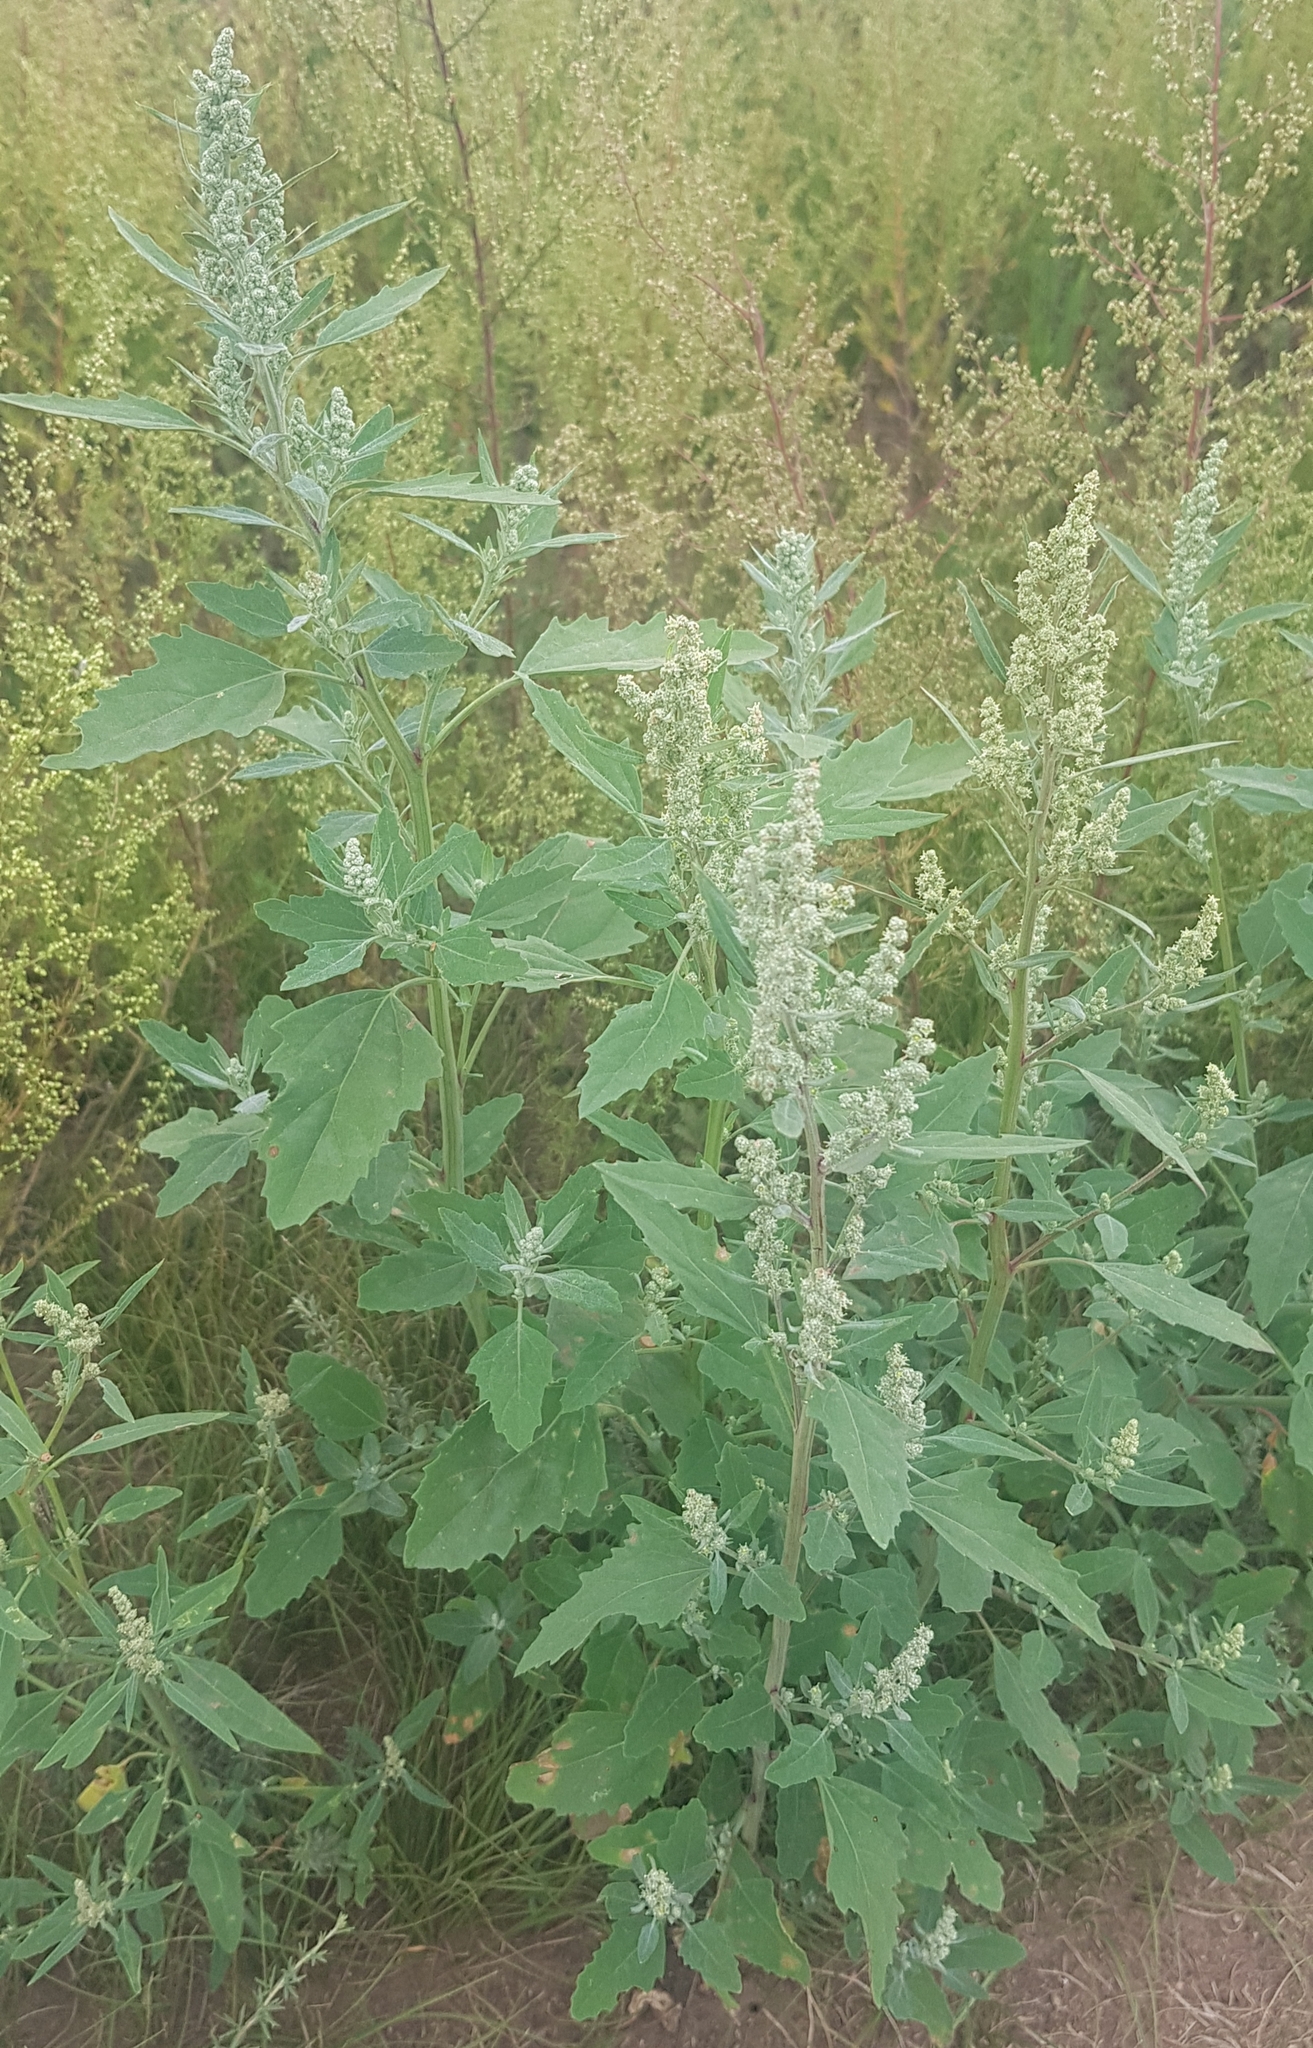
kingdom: Plantae
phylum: Tracheophyta
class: Magnoliopsida
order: Caryophyllales
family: Amaranthaceae
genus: Chenopodium
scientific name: Chenopodium album
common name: Fat-hen
